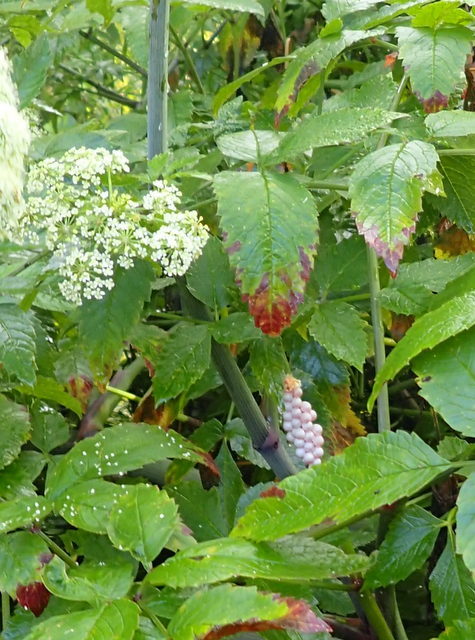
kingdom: Animalia
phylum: Mollusca
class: Gastropoda
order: Architaenioglossa
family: Ampullariidae
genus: Pomacea
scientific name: Pomacea paludosa
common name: Florida applesnail
